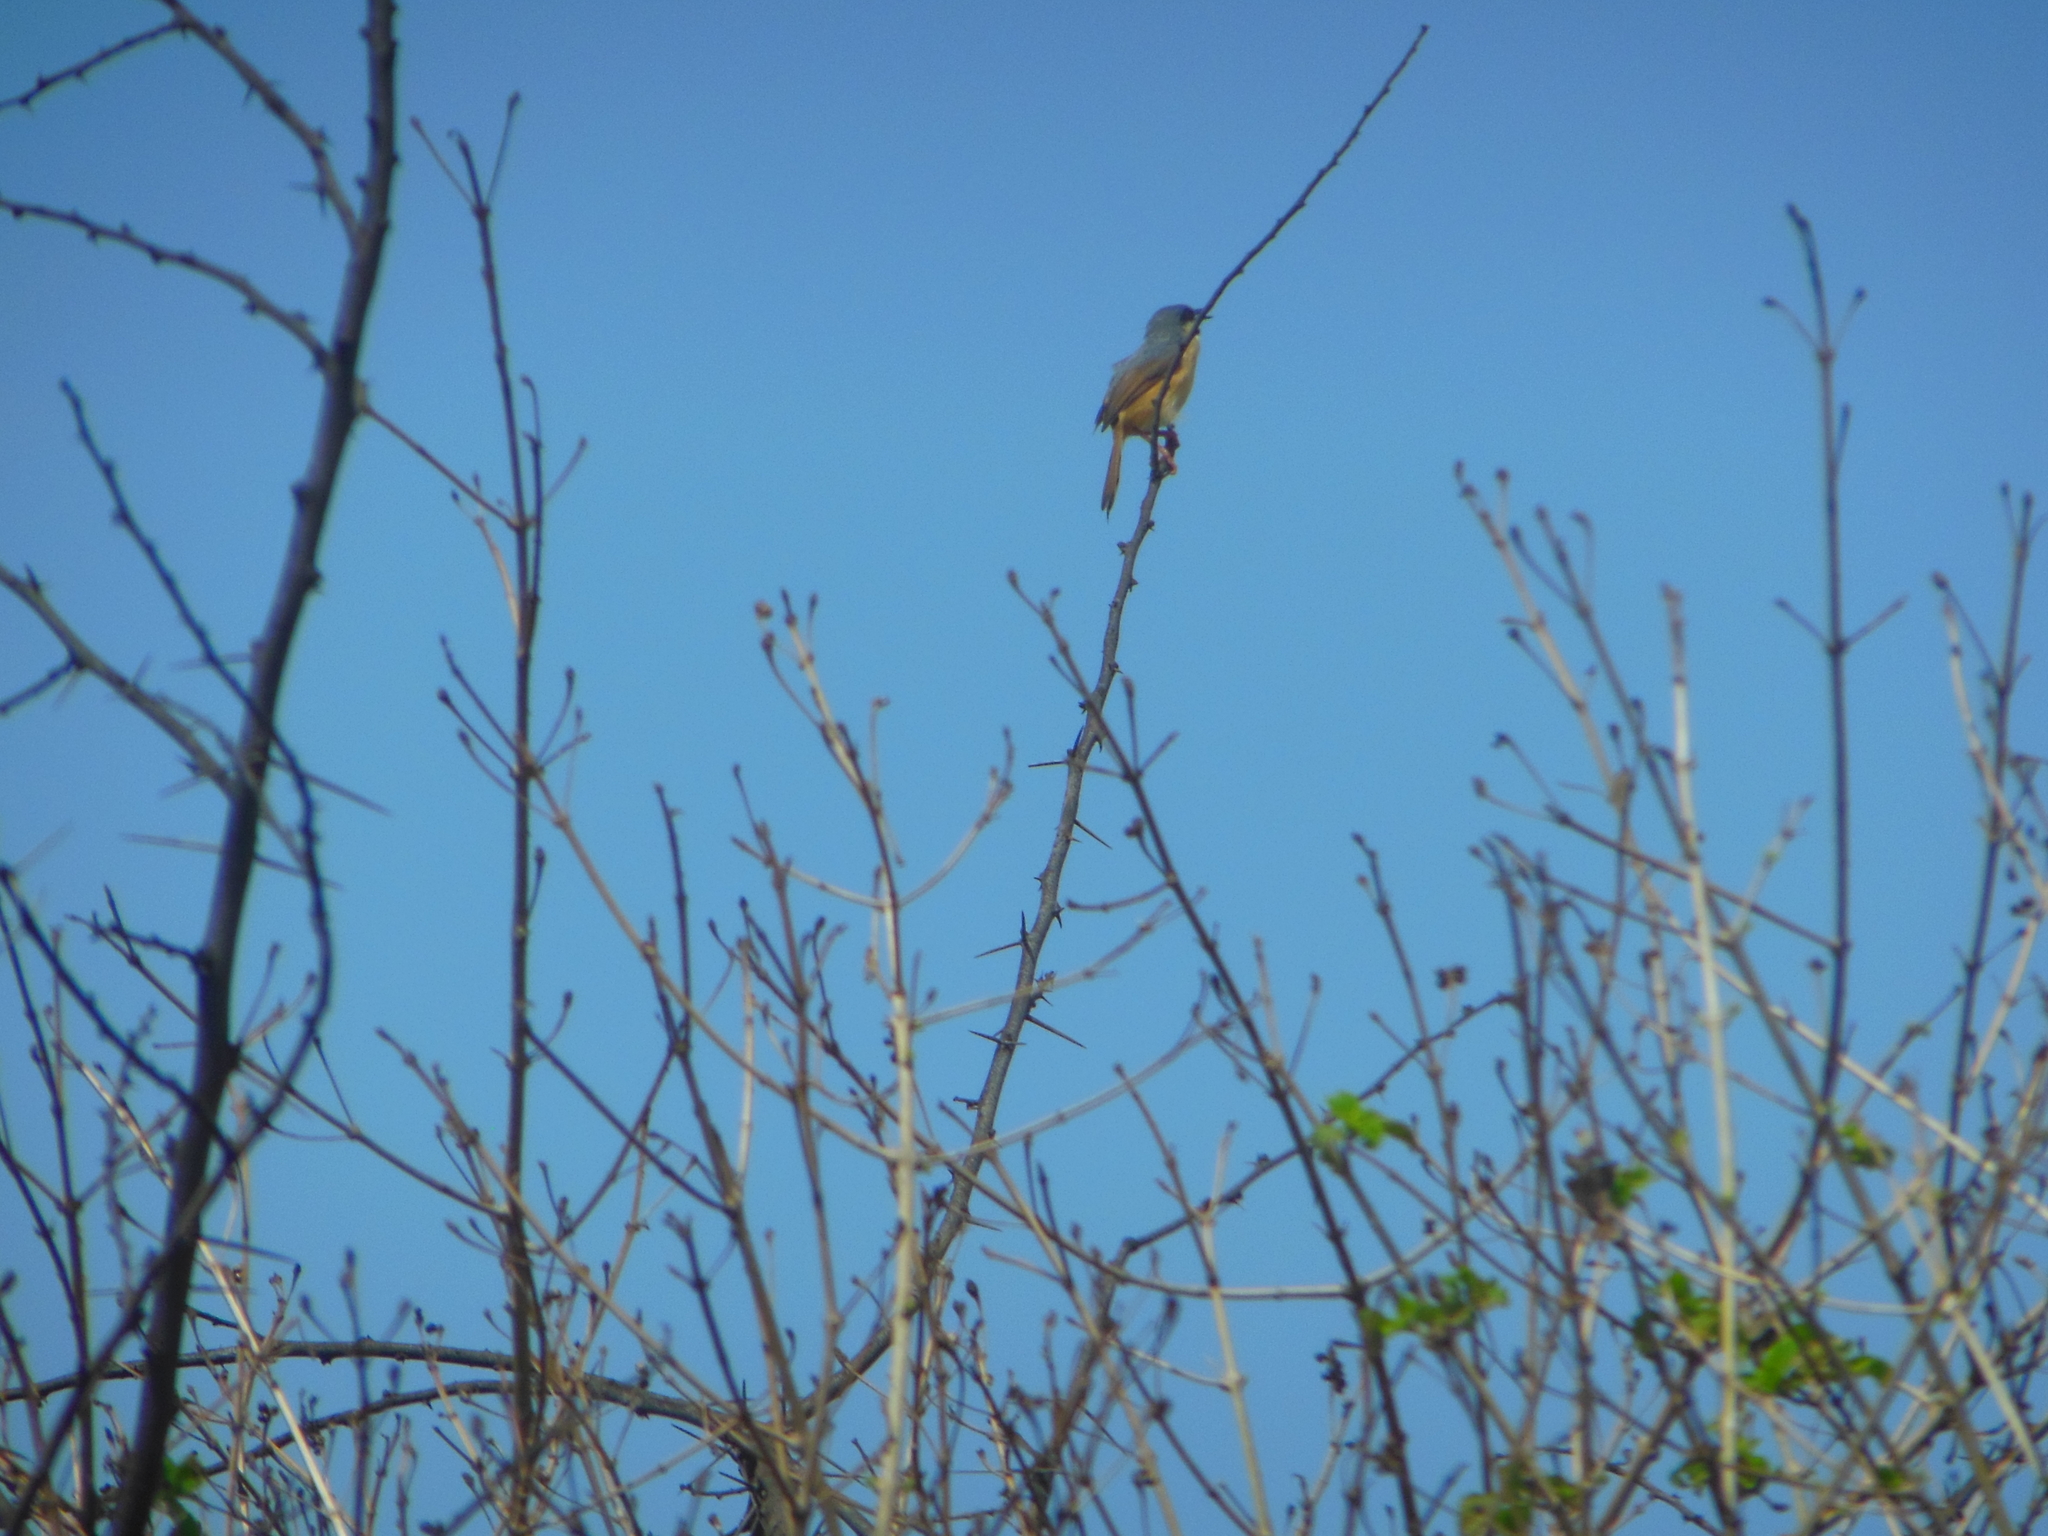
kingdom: Animalia
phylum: Chordata
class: Aves
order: Passeriformes
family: Cisticolidae
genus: Prinia
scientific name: Prinia socialis
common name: Ashy prinia
